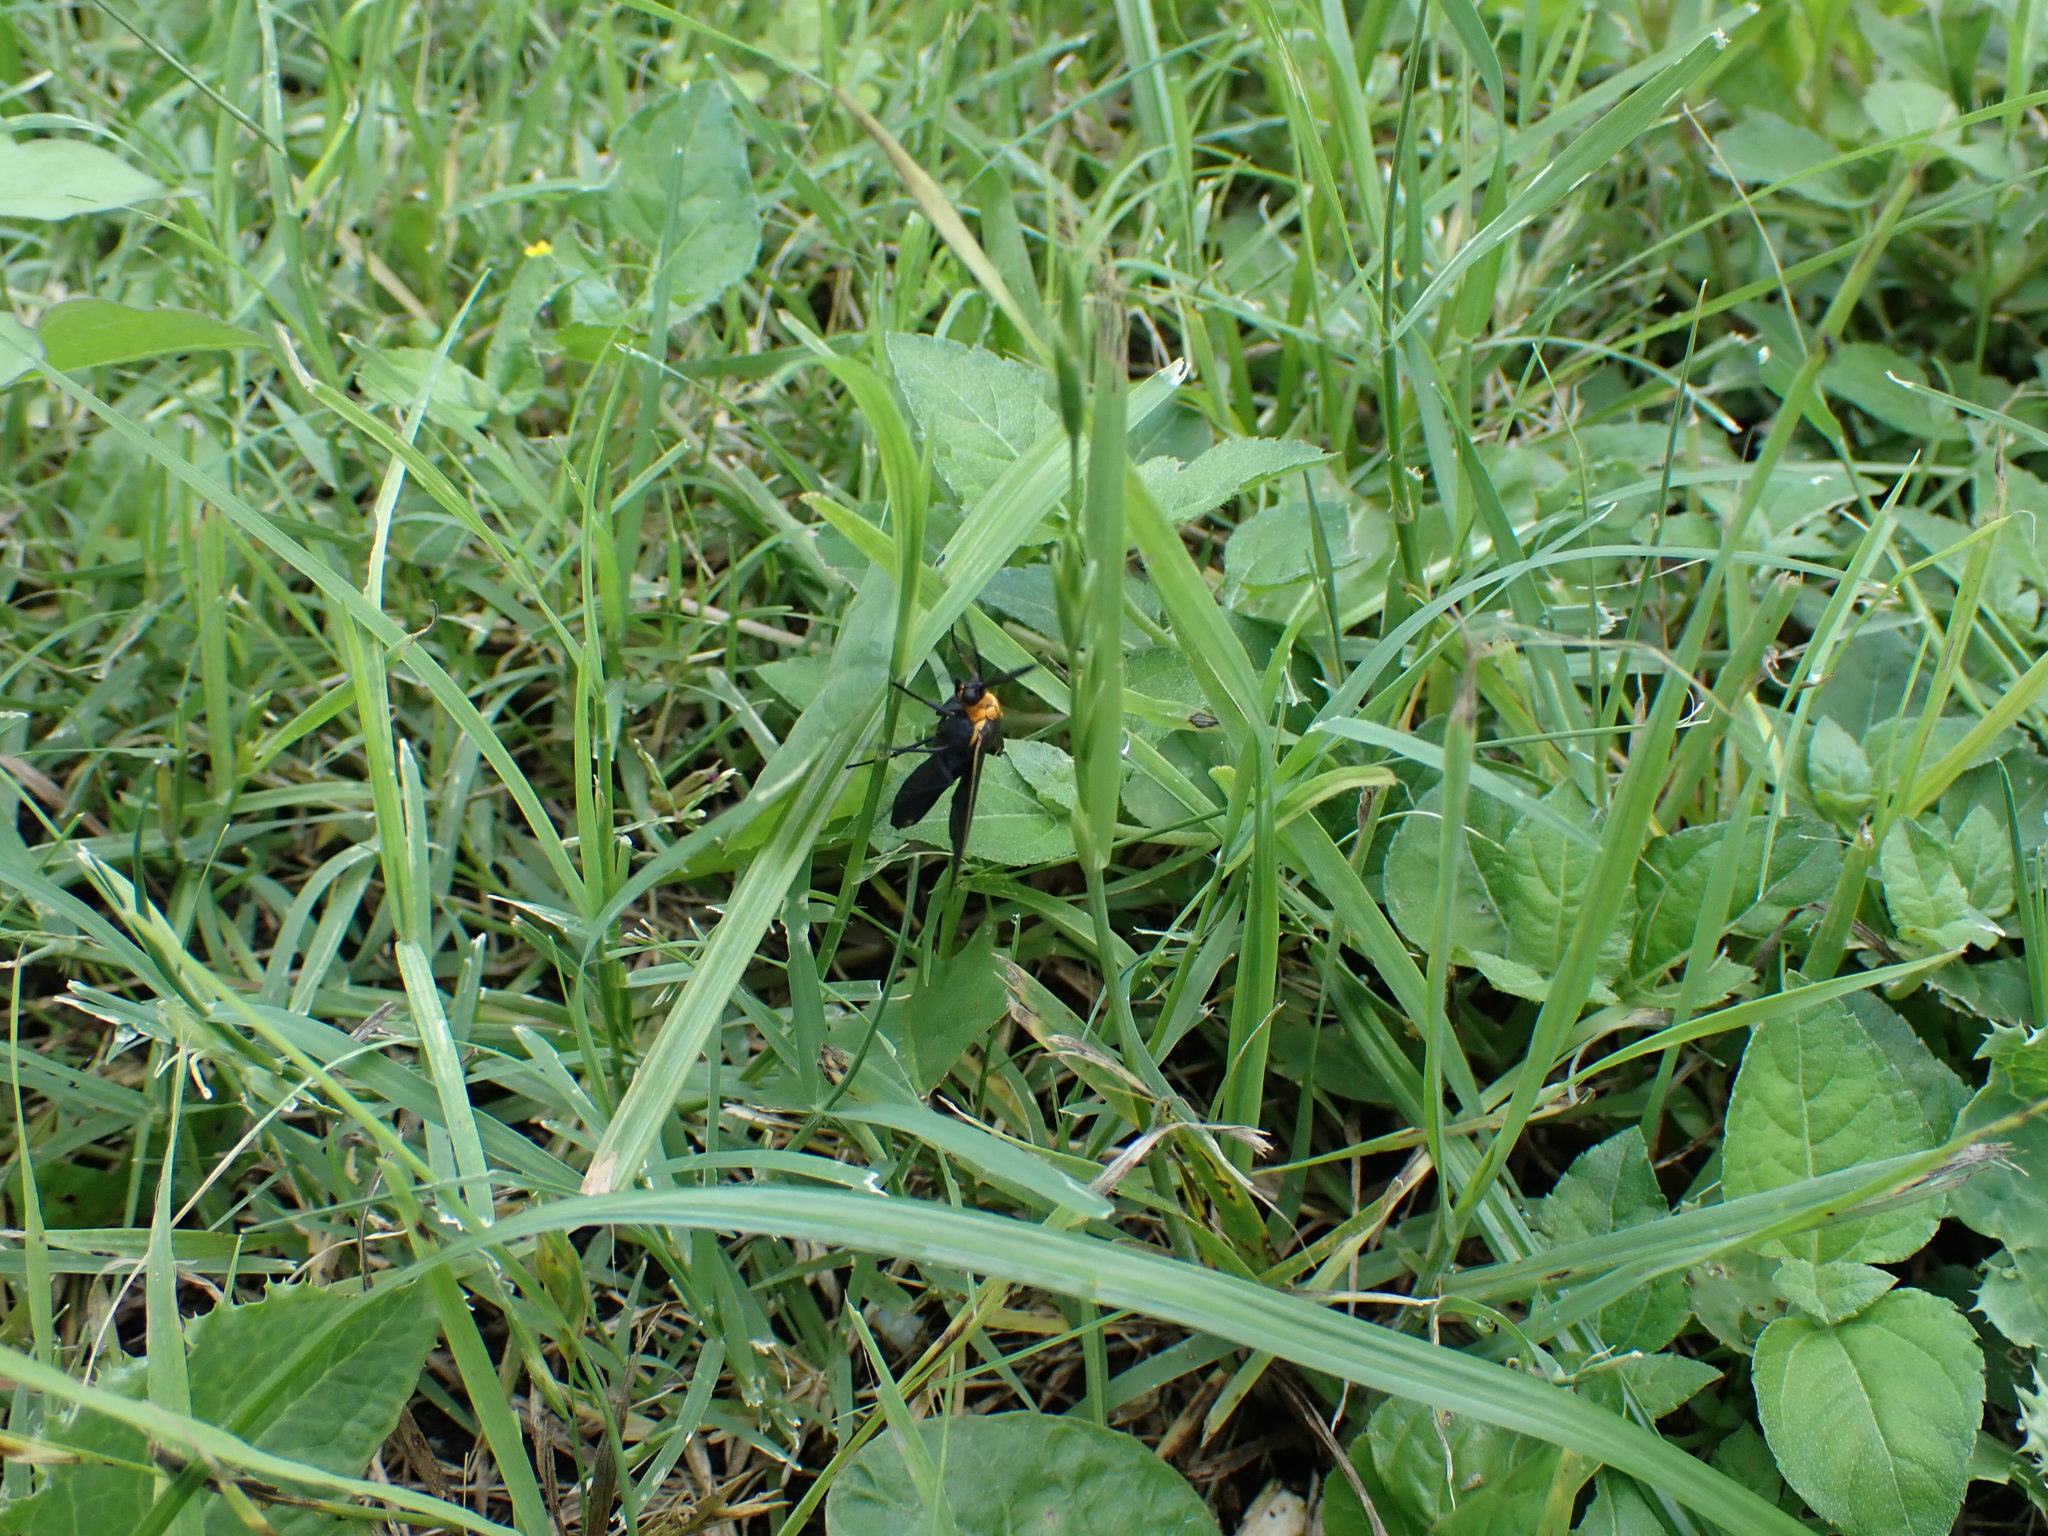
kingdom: Animalia
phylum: Arthropoda
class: Insecta
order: Lepidoptera
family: Erebidae
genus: Cisseps
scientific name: Cisseps fulvicollis
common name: Yellow-collared scape moth
